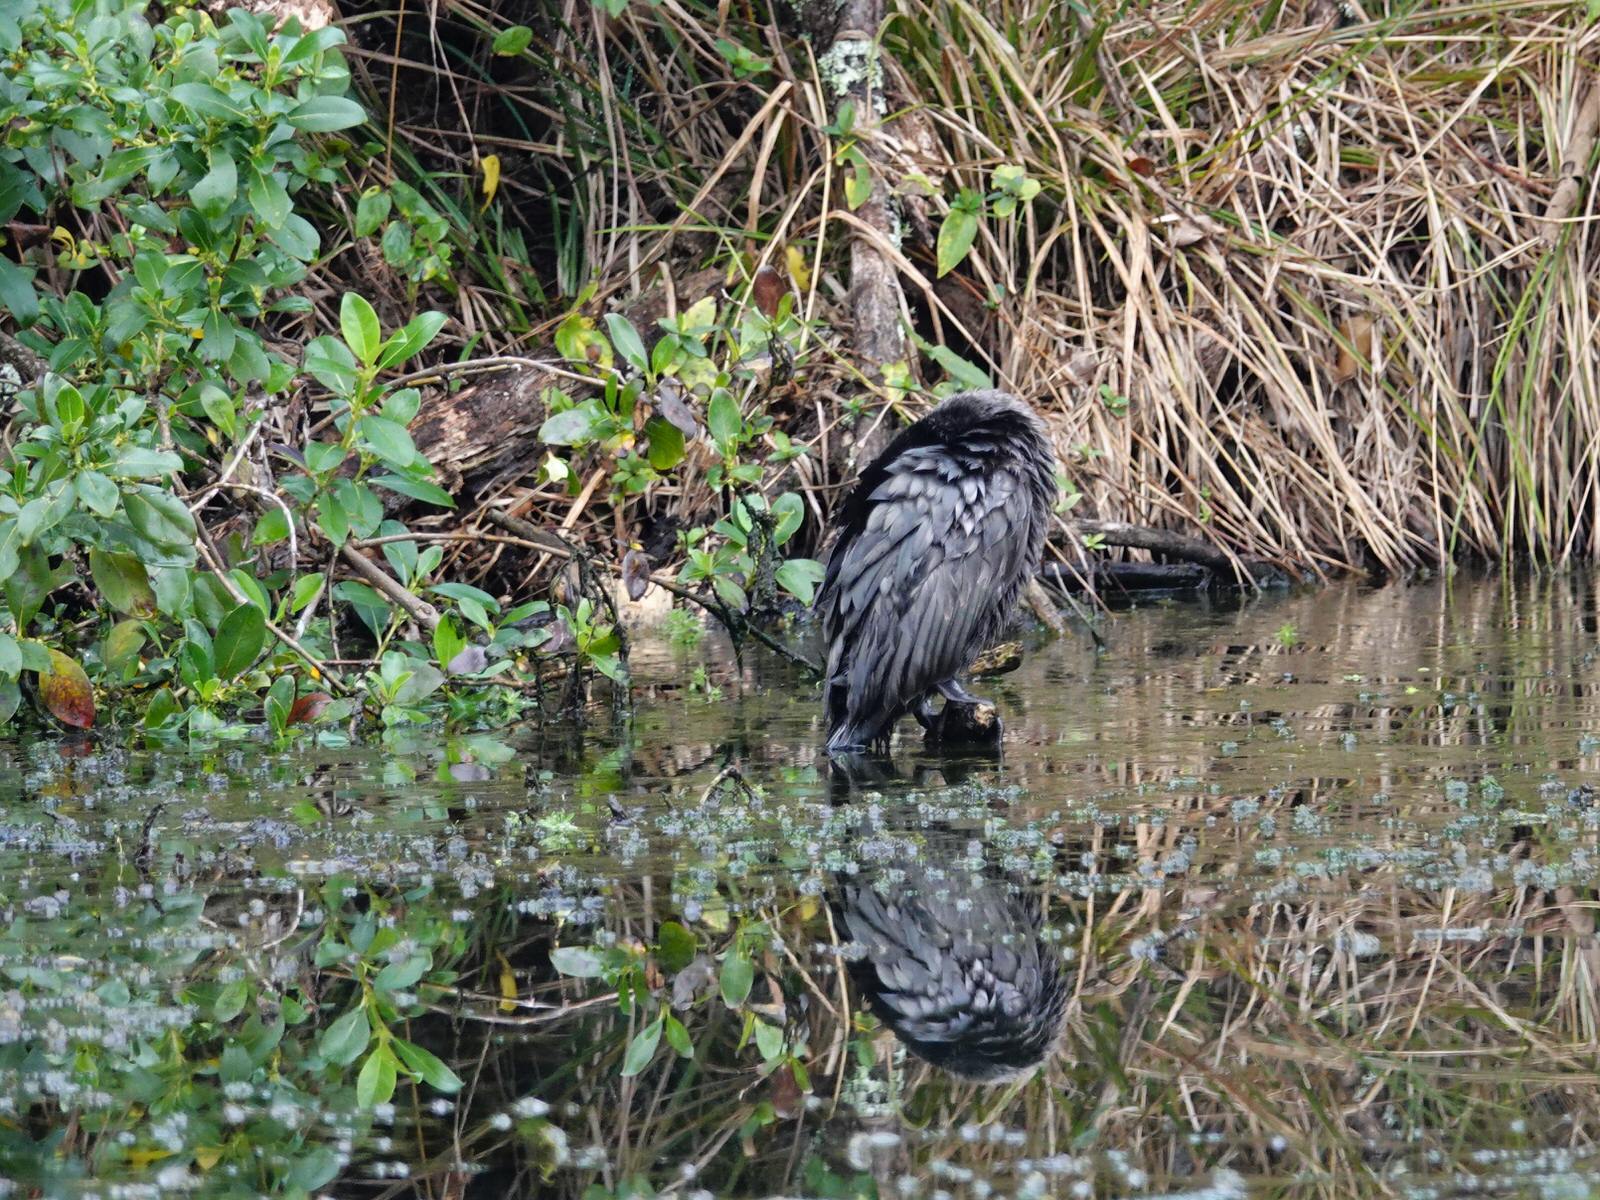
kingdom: Animalia
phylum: Chordata
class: Aves
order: Suliformes
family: Phalacrocoracidae
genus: Phalacrocorax
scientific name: Phalacrocorax sulcirostris
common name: Little black cormorant
